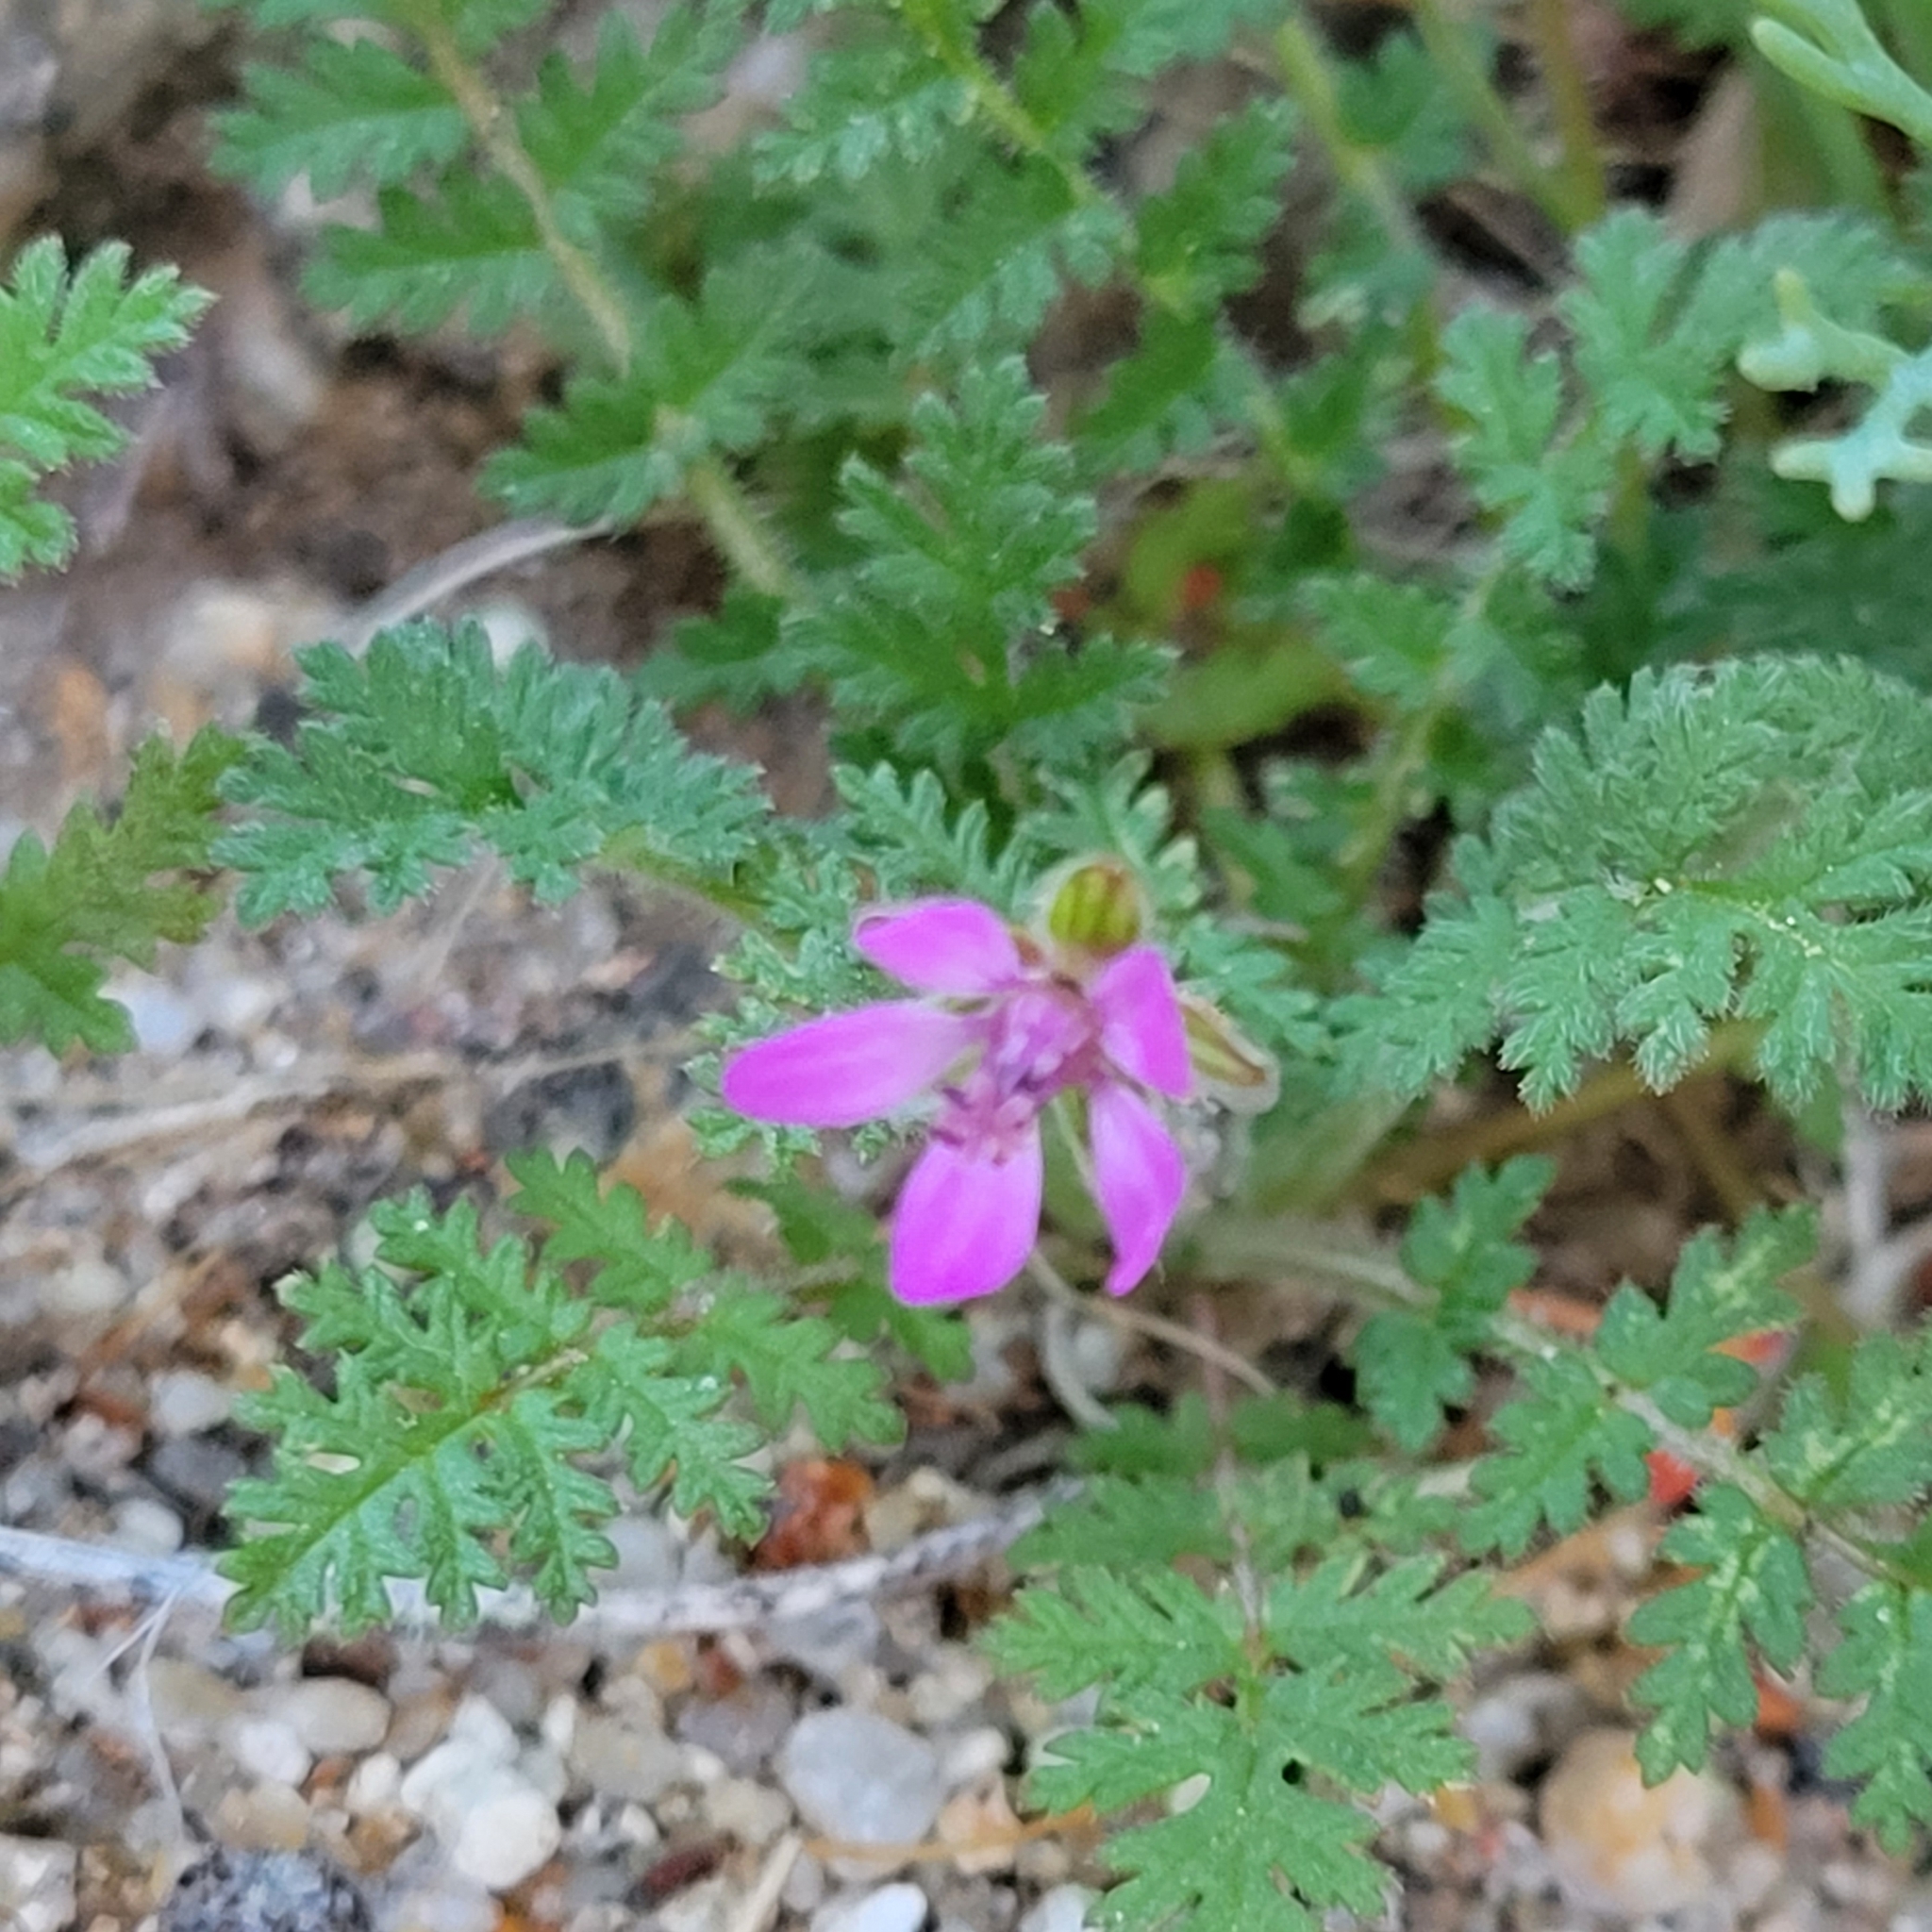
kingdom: Plantae
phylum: Tracheophyta
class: Magnoliopsida
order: Geraniales
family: Geraniaceae
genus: Erodium
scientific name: Erodium cicutarium
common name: Common stork's-bill
